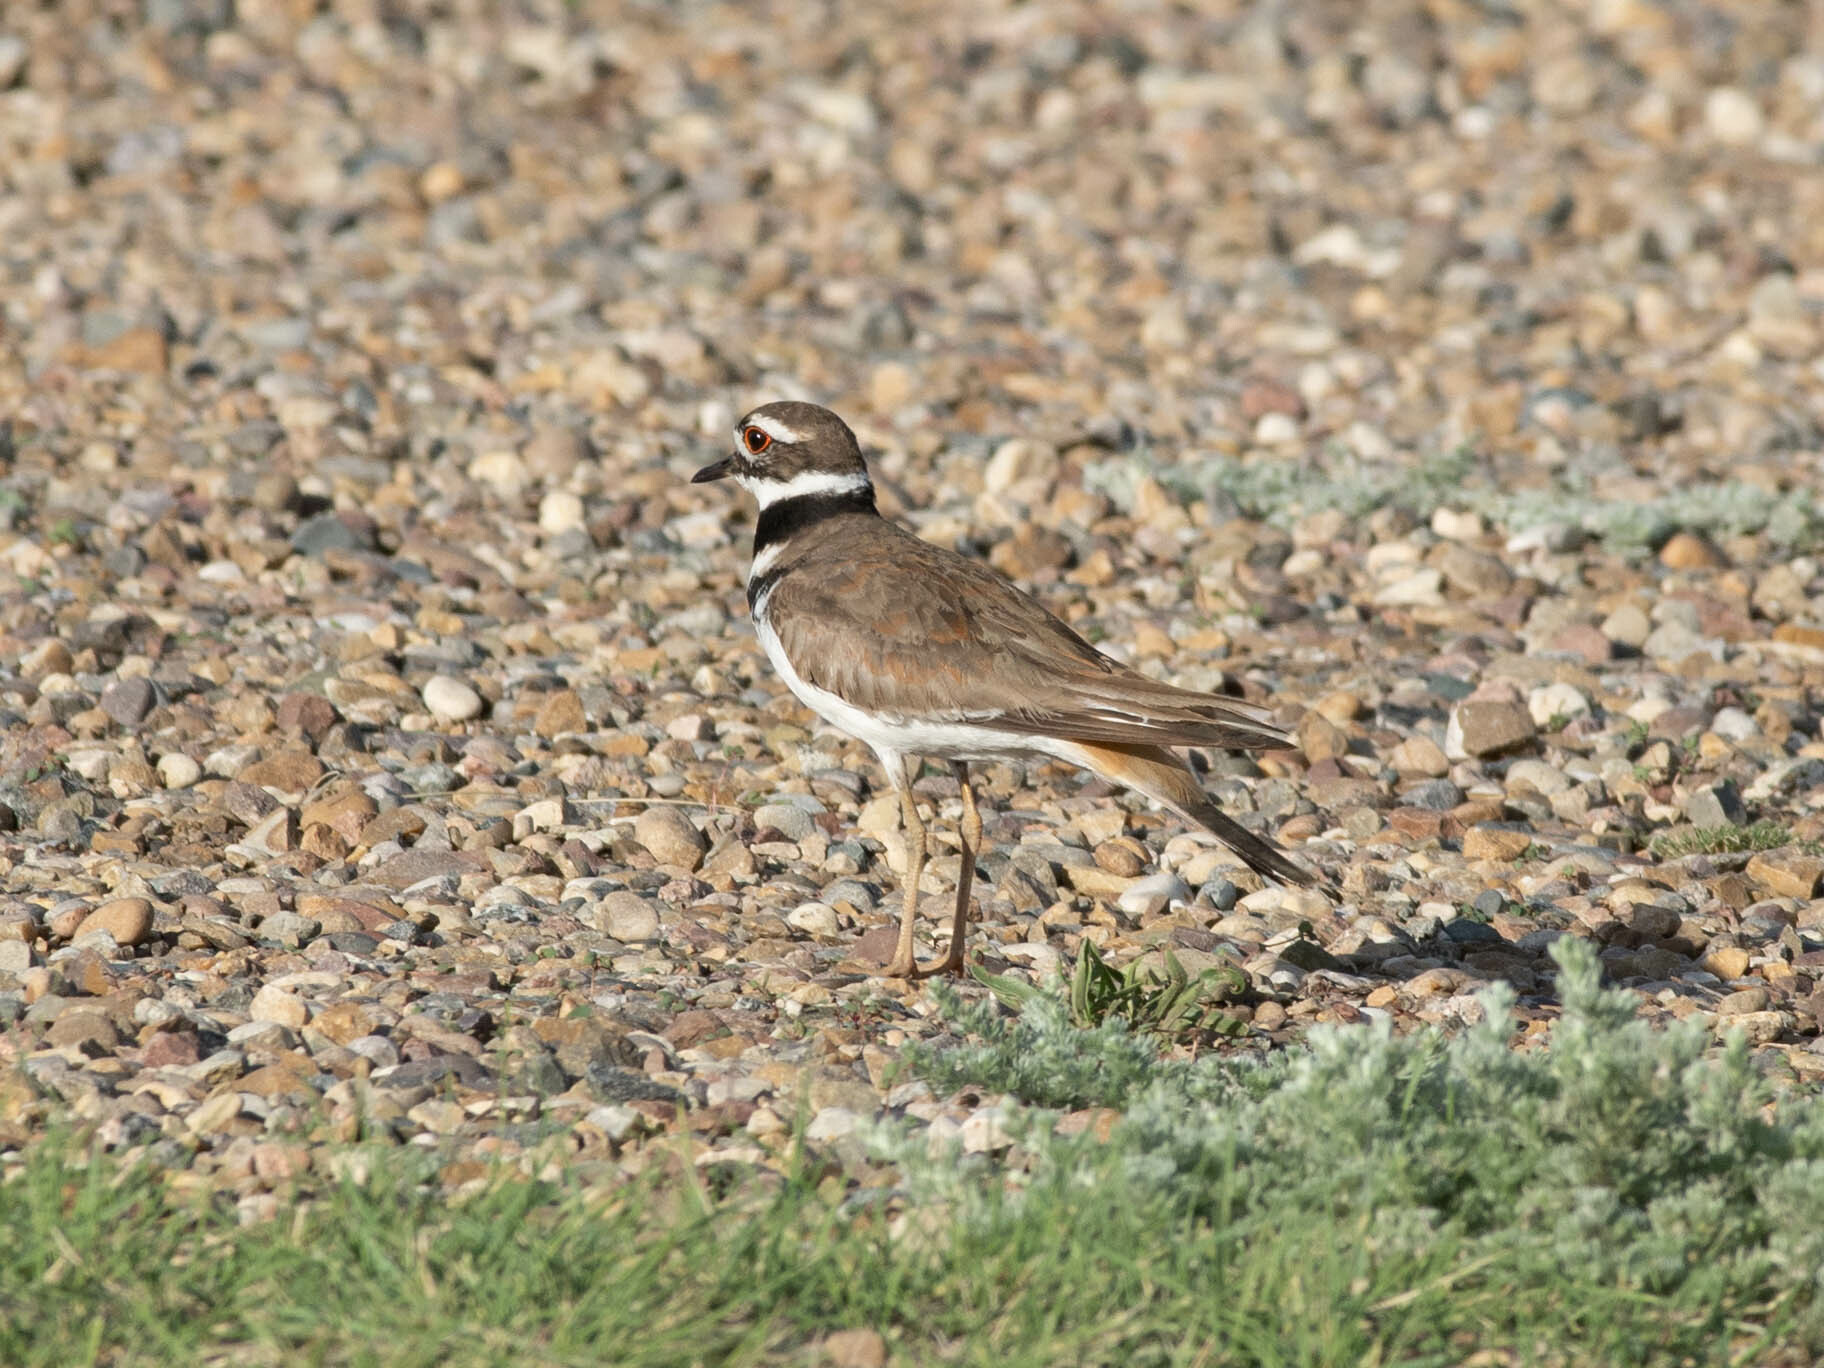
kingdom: Animalia
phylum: Chordata
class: Aves
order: Charadriiformes
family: Charadriidae
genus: Charadrius
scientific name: Charadrius vociferus
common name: Killdeer
